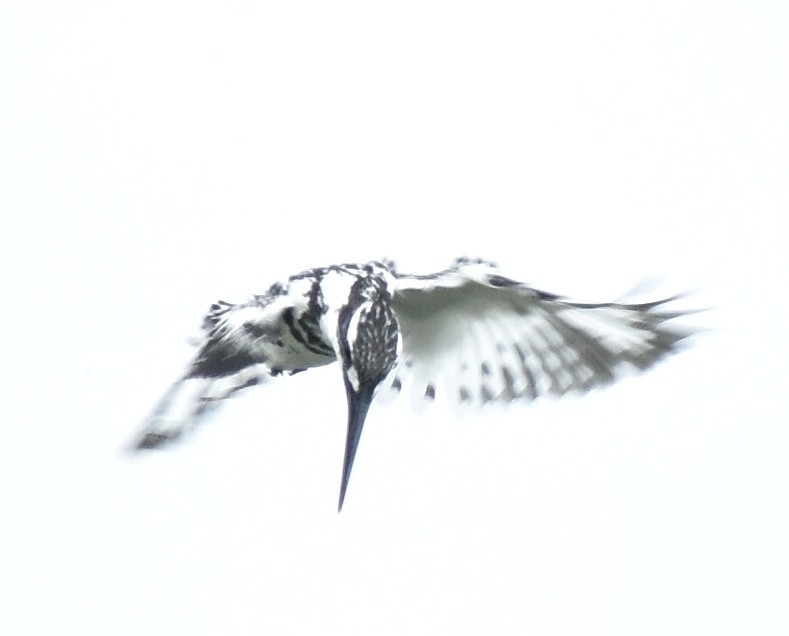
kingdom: Animalia
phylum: Chordata
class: Aves
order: Coraciiformes
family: Alcedinidae
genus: Ceryle
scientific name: Ceryle rudis
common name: Pied kingfisher
